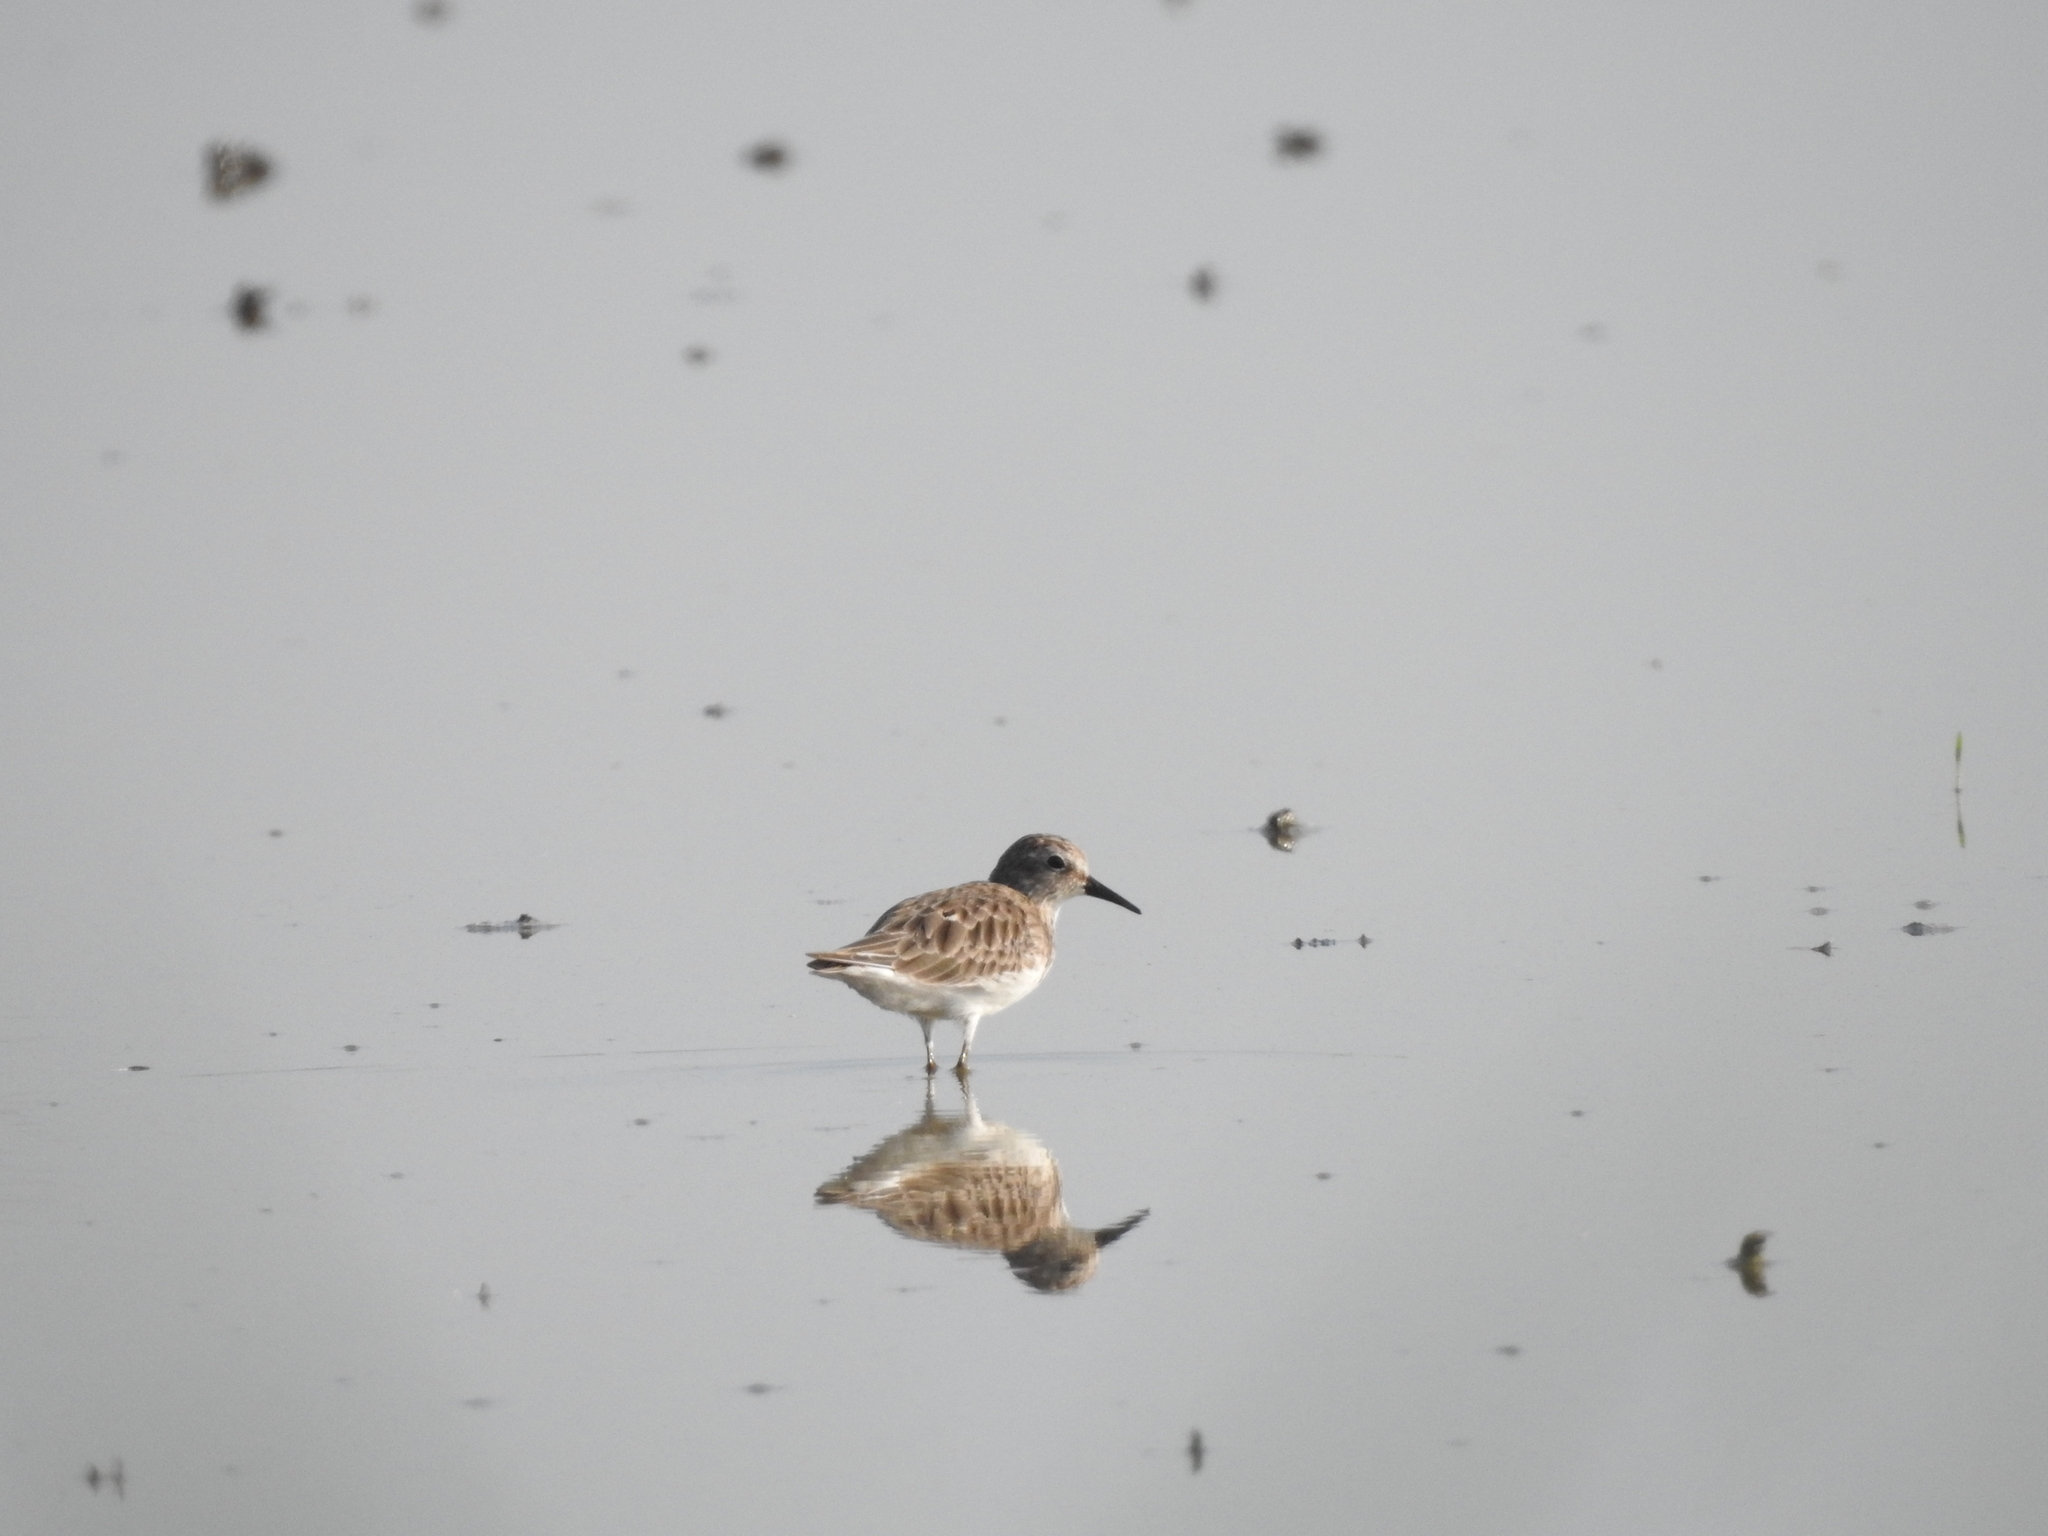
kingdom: Animalia
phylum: Chordata
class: Aves
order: Charadriiformes
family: Scolopacidae
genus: Calidris
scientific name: Calidris mauri
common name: Western sandpiper
